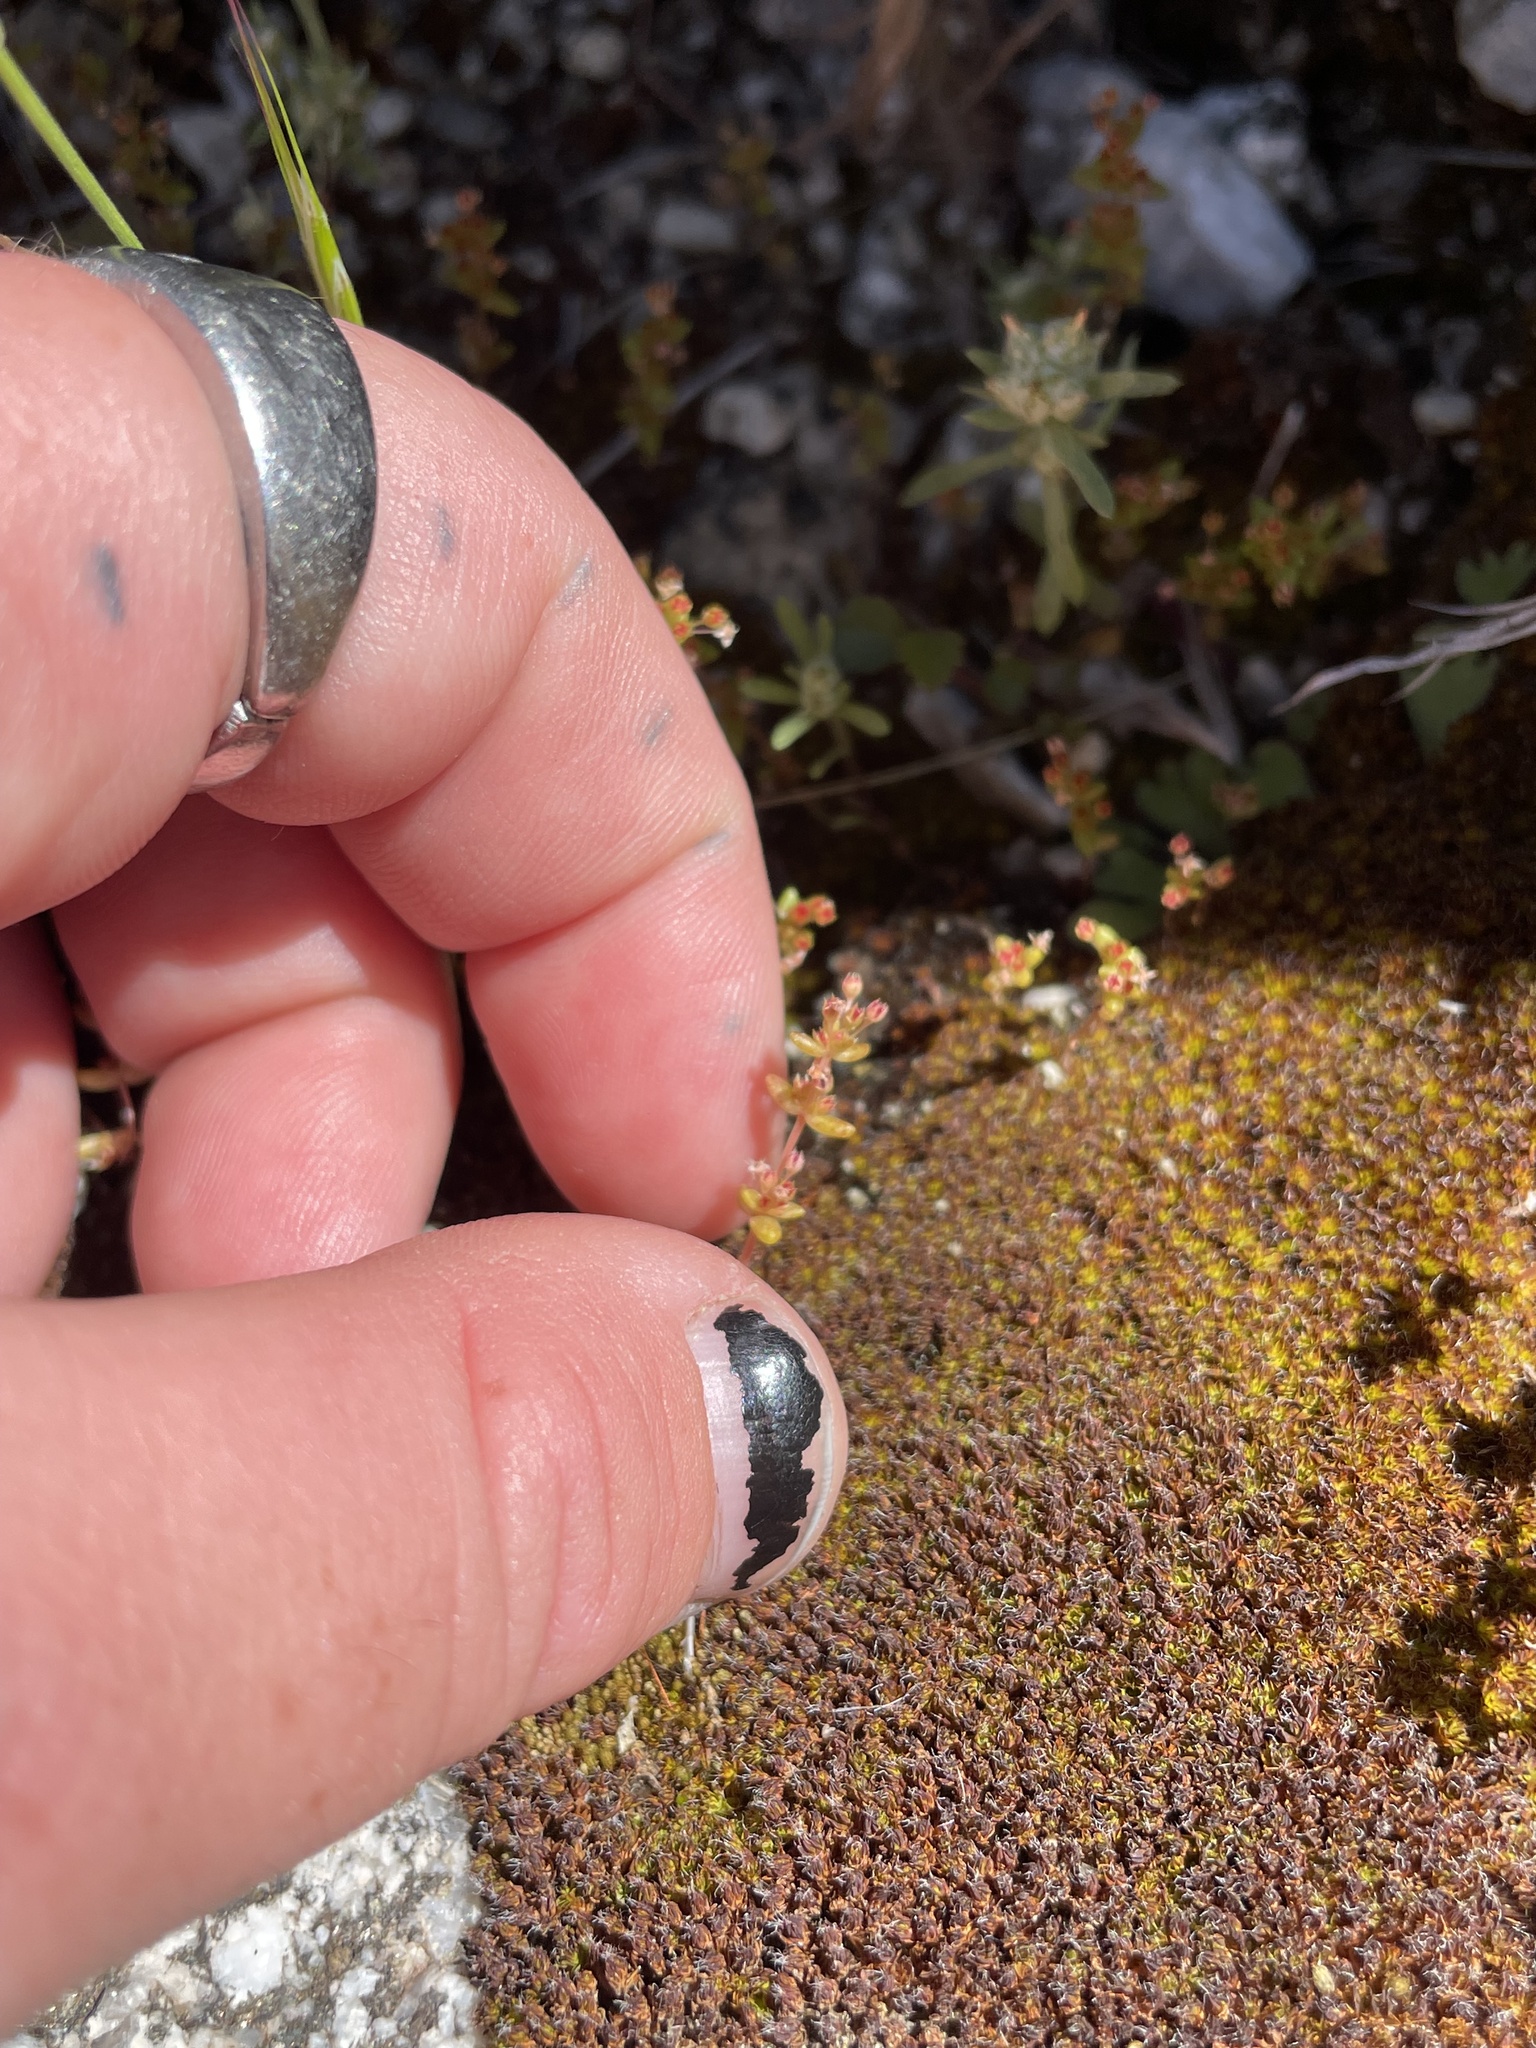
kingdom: Plantae
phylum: Tracheophyta
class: Magnoliopsida
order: Saxifragales
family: Crassulaceae
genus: Crassula
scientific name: Crassula connata
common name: Erect pygmyweed
